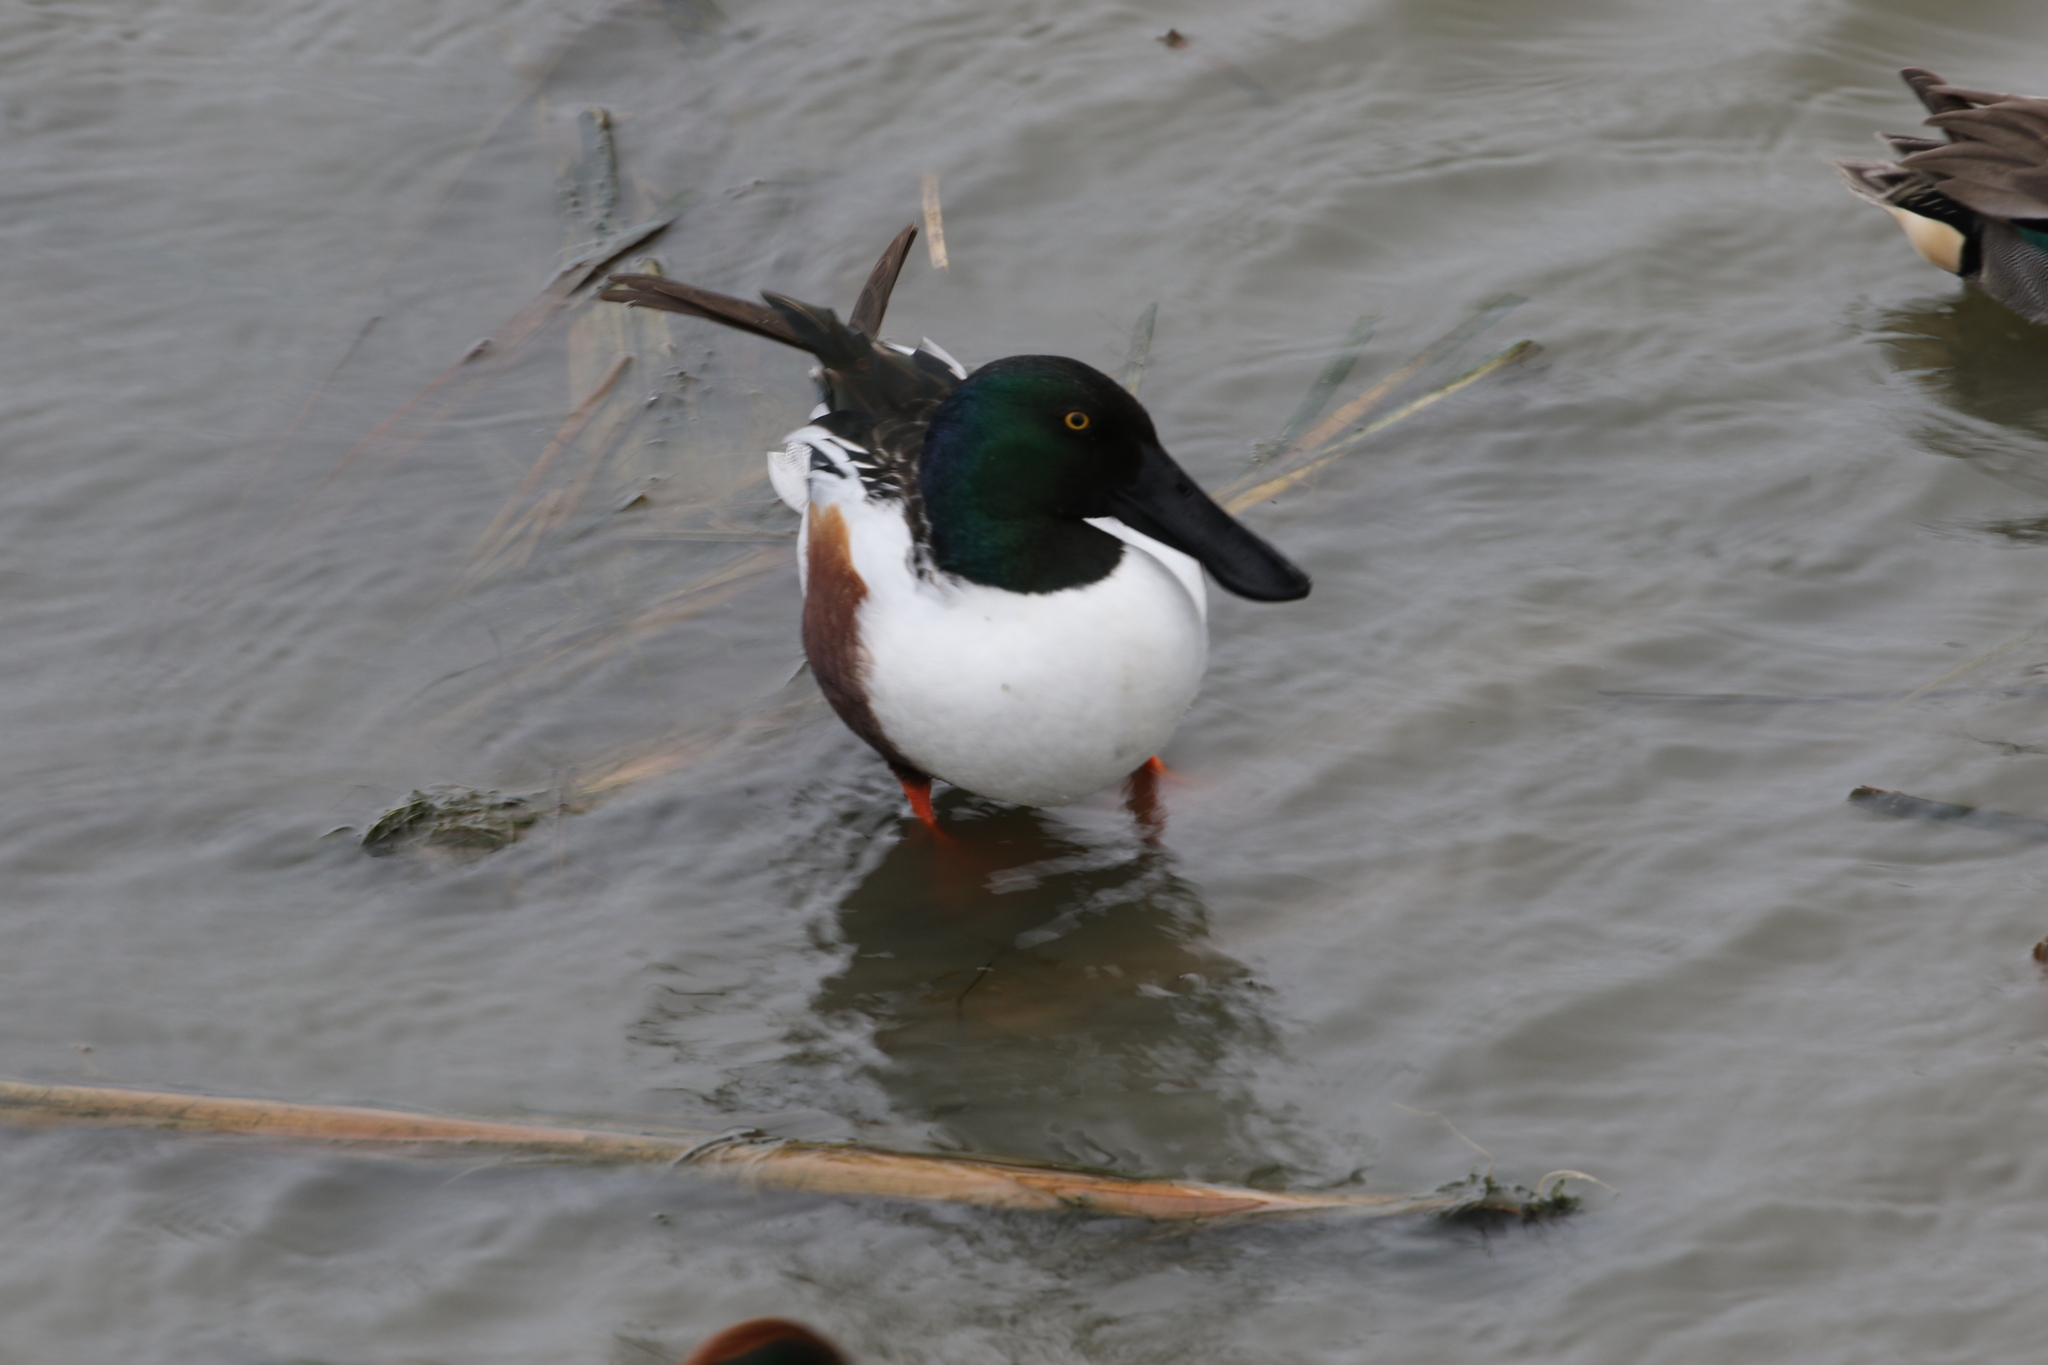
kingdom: Animalia
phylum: Chordata
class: Aves
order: Anseriformes
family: Anatidae
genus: Spatula
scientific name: Spatula clypeata
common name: Northern shoveler
